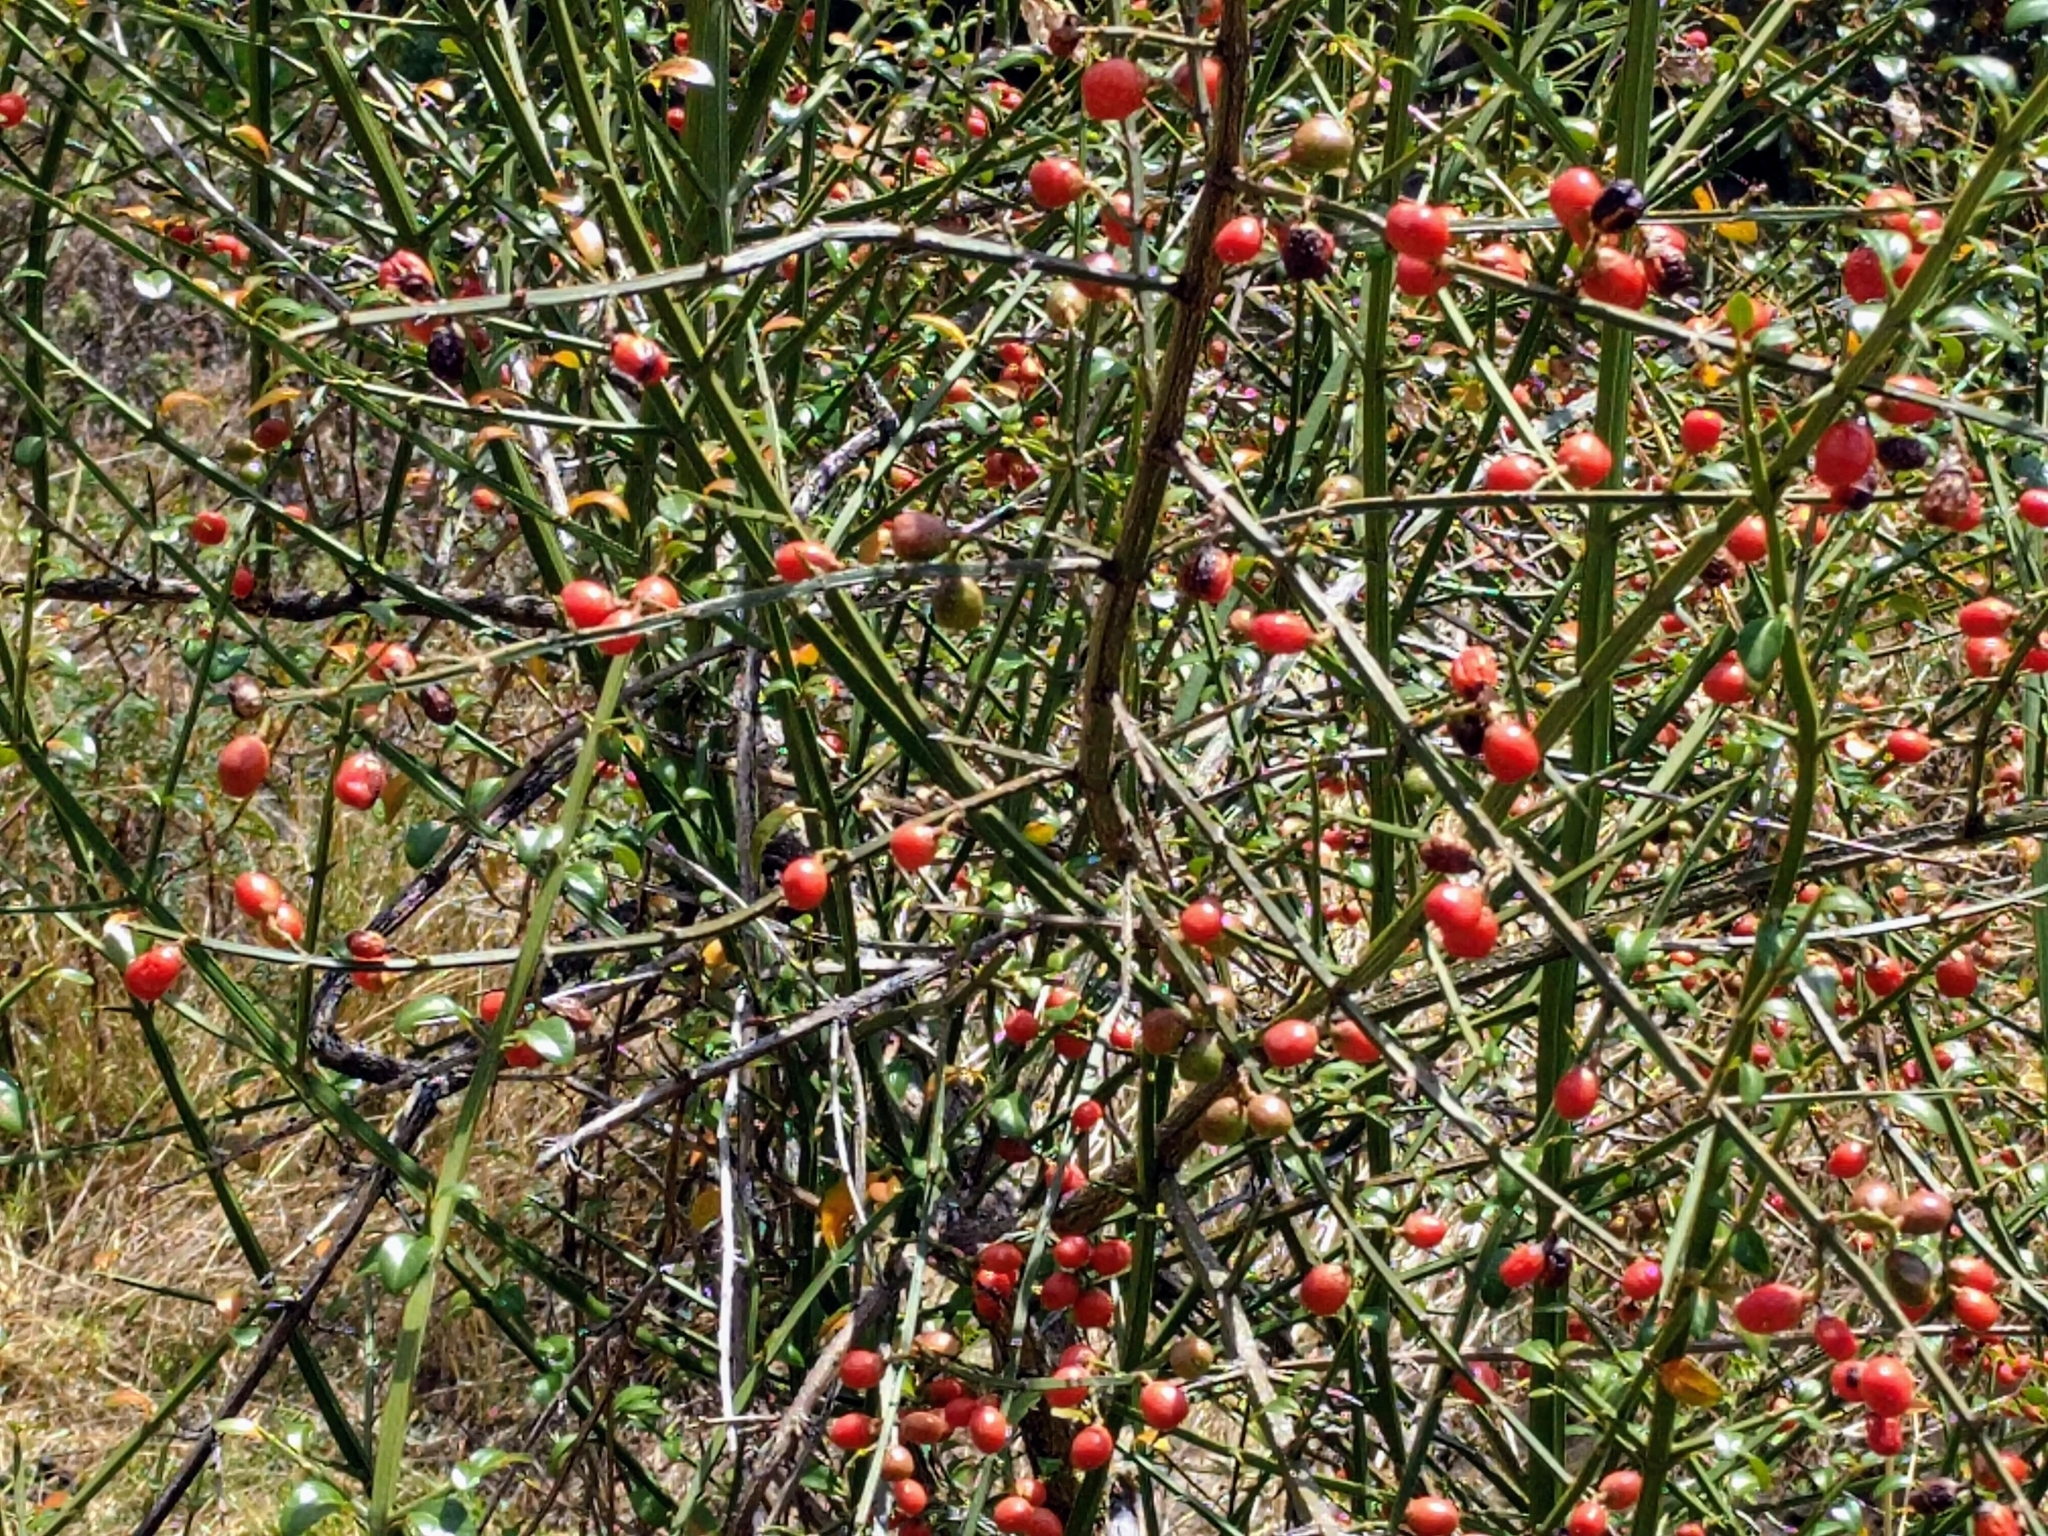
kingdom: Plantae
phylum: Tracheophyta
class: Magnoliopsida
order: Lamiales
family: Verbenaceae
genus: Citharexylum
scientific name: Citharexylum herrerae
